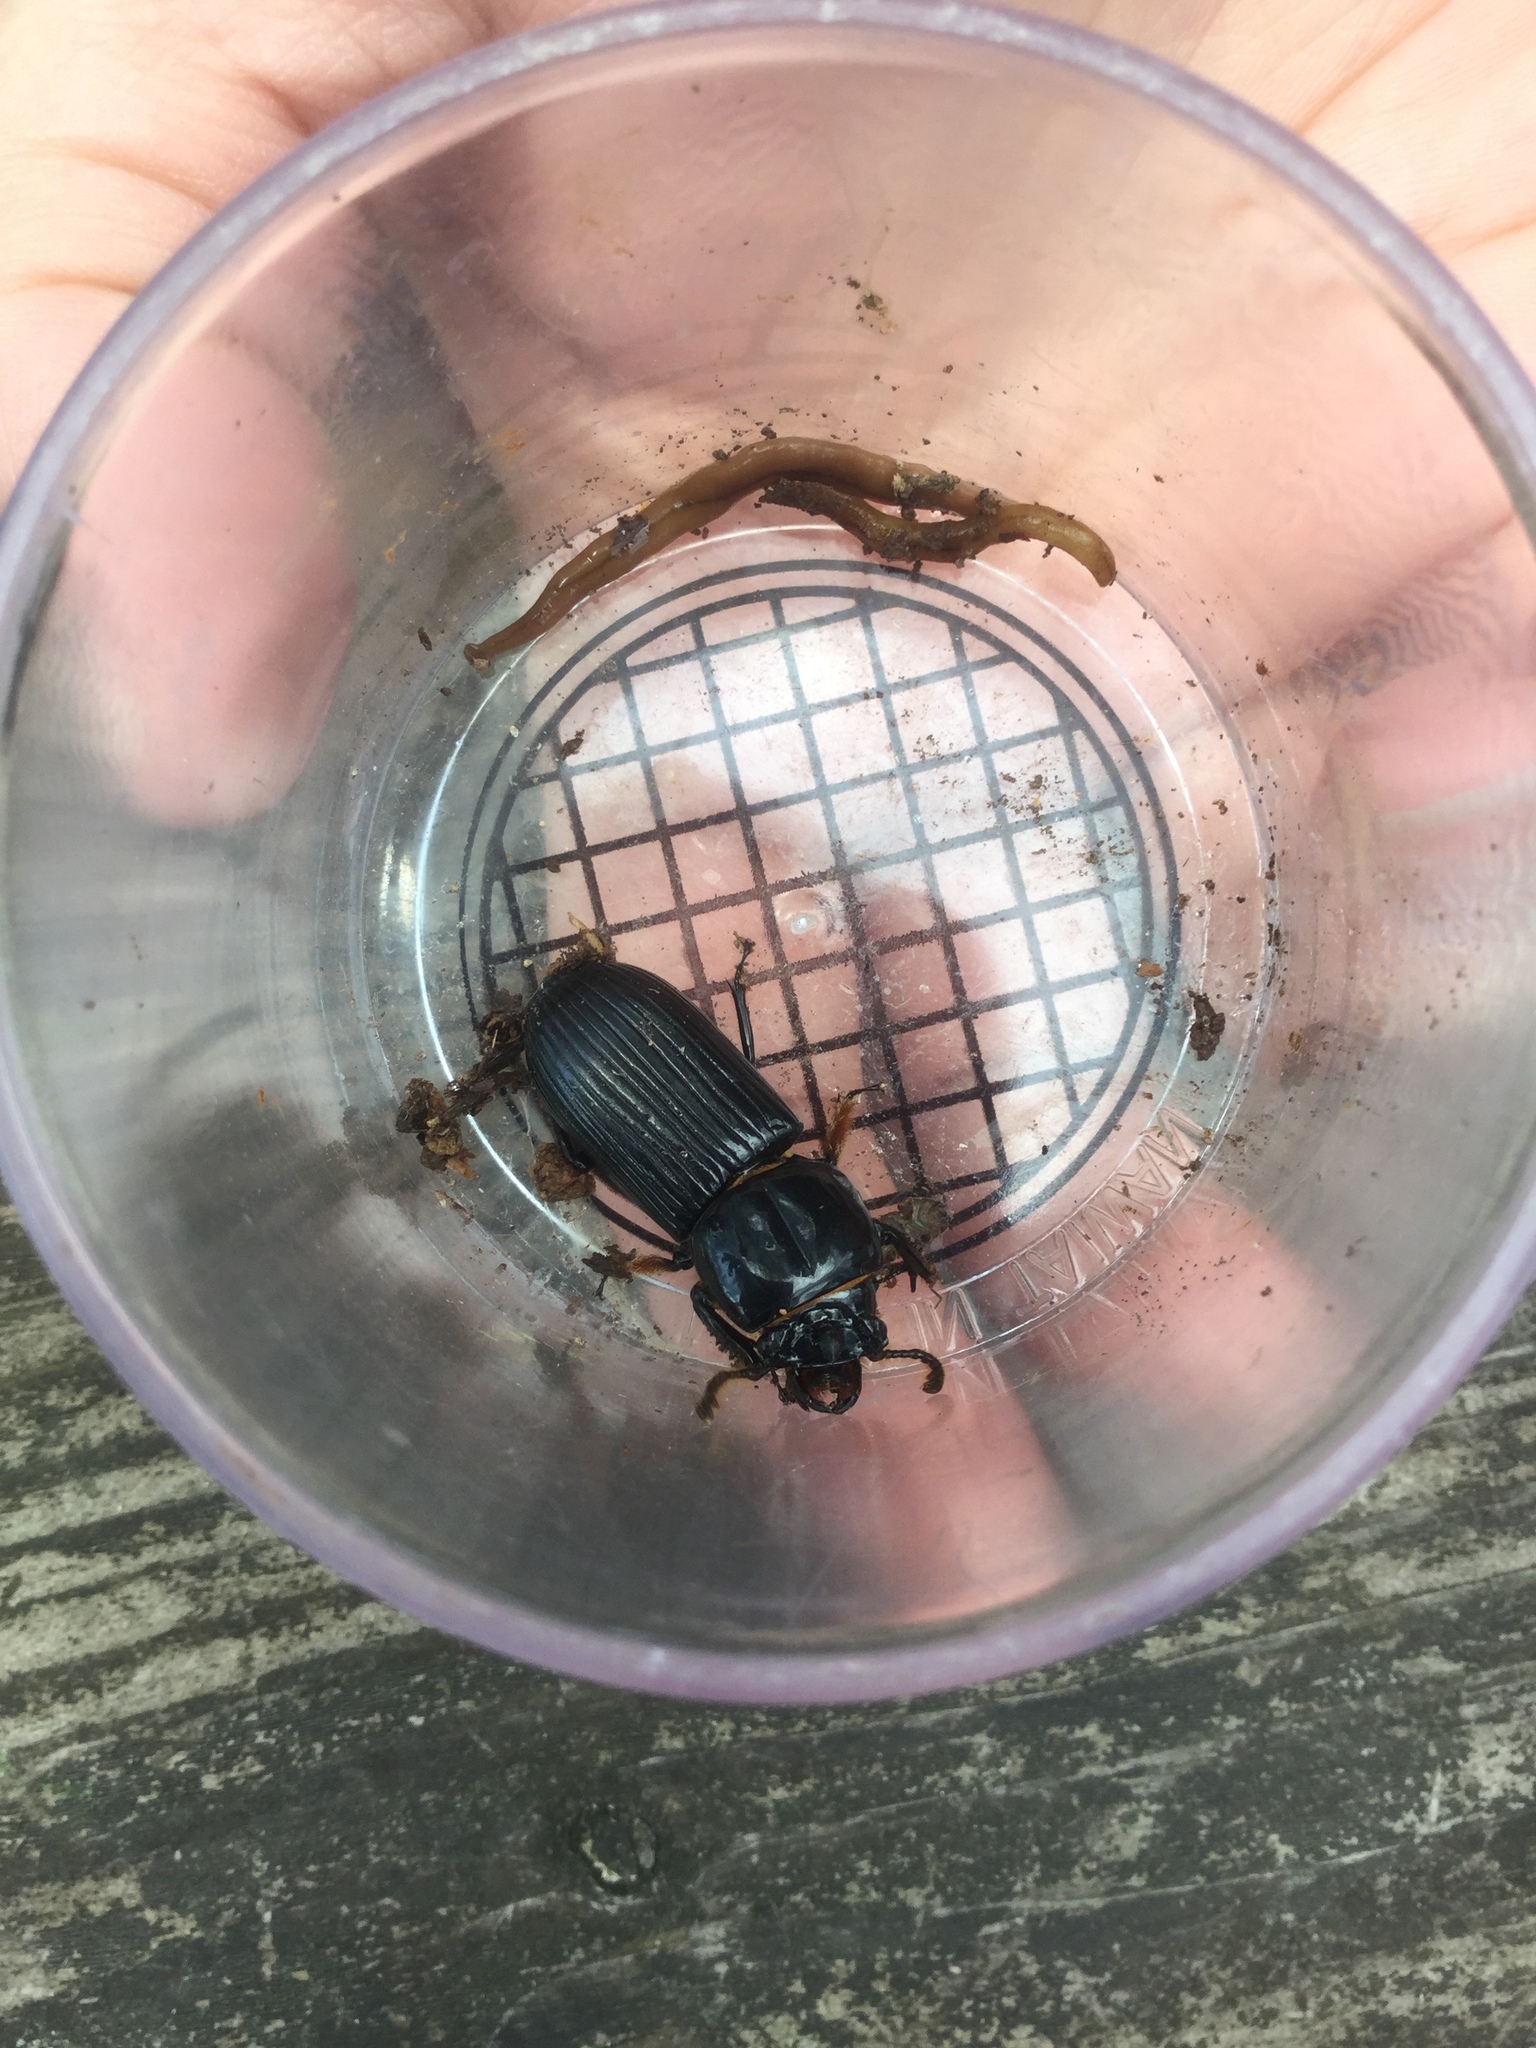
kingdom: Animalia
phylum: Arthropoda
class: Insecta
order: Coleoptera
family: Passalidae
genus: Odontotaenius
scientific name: Odontotaenius disjunctus
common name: Patent leather beetle
